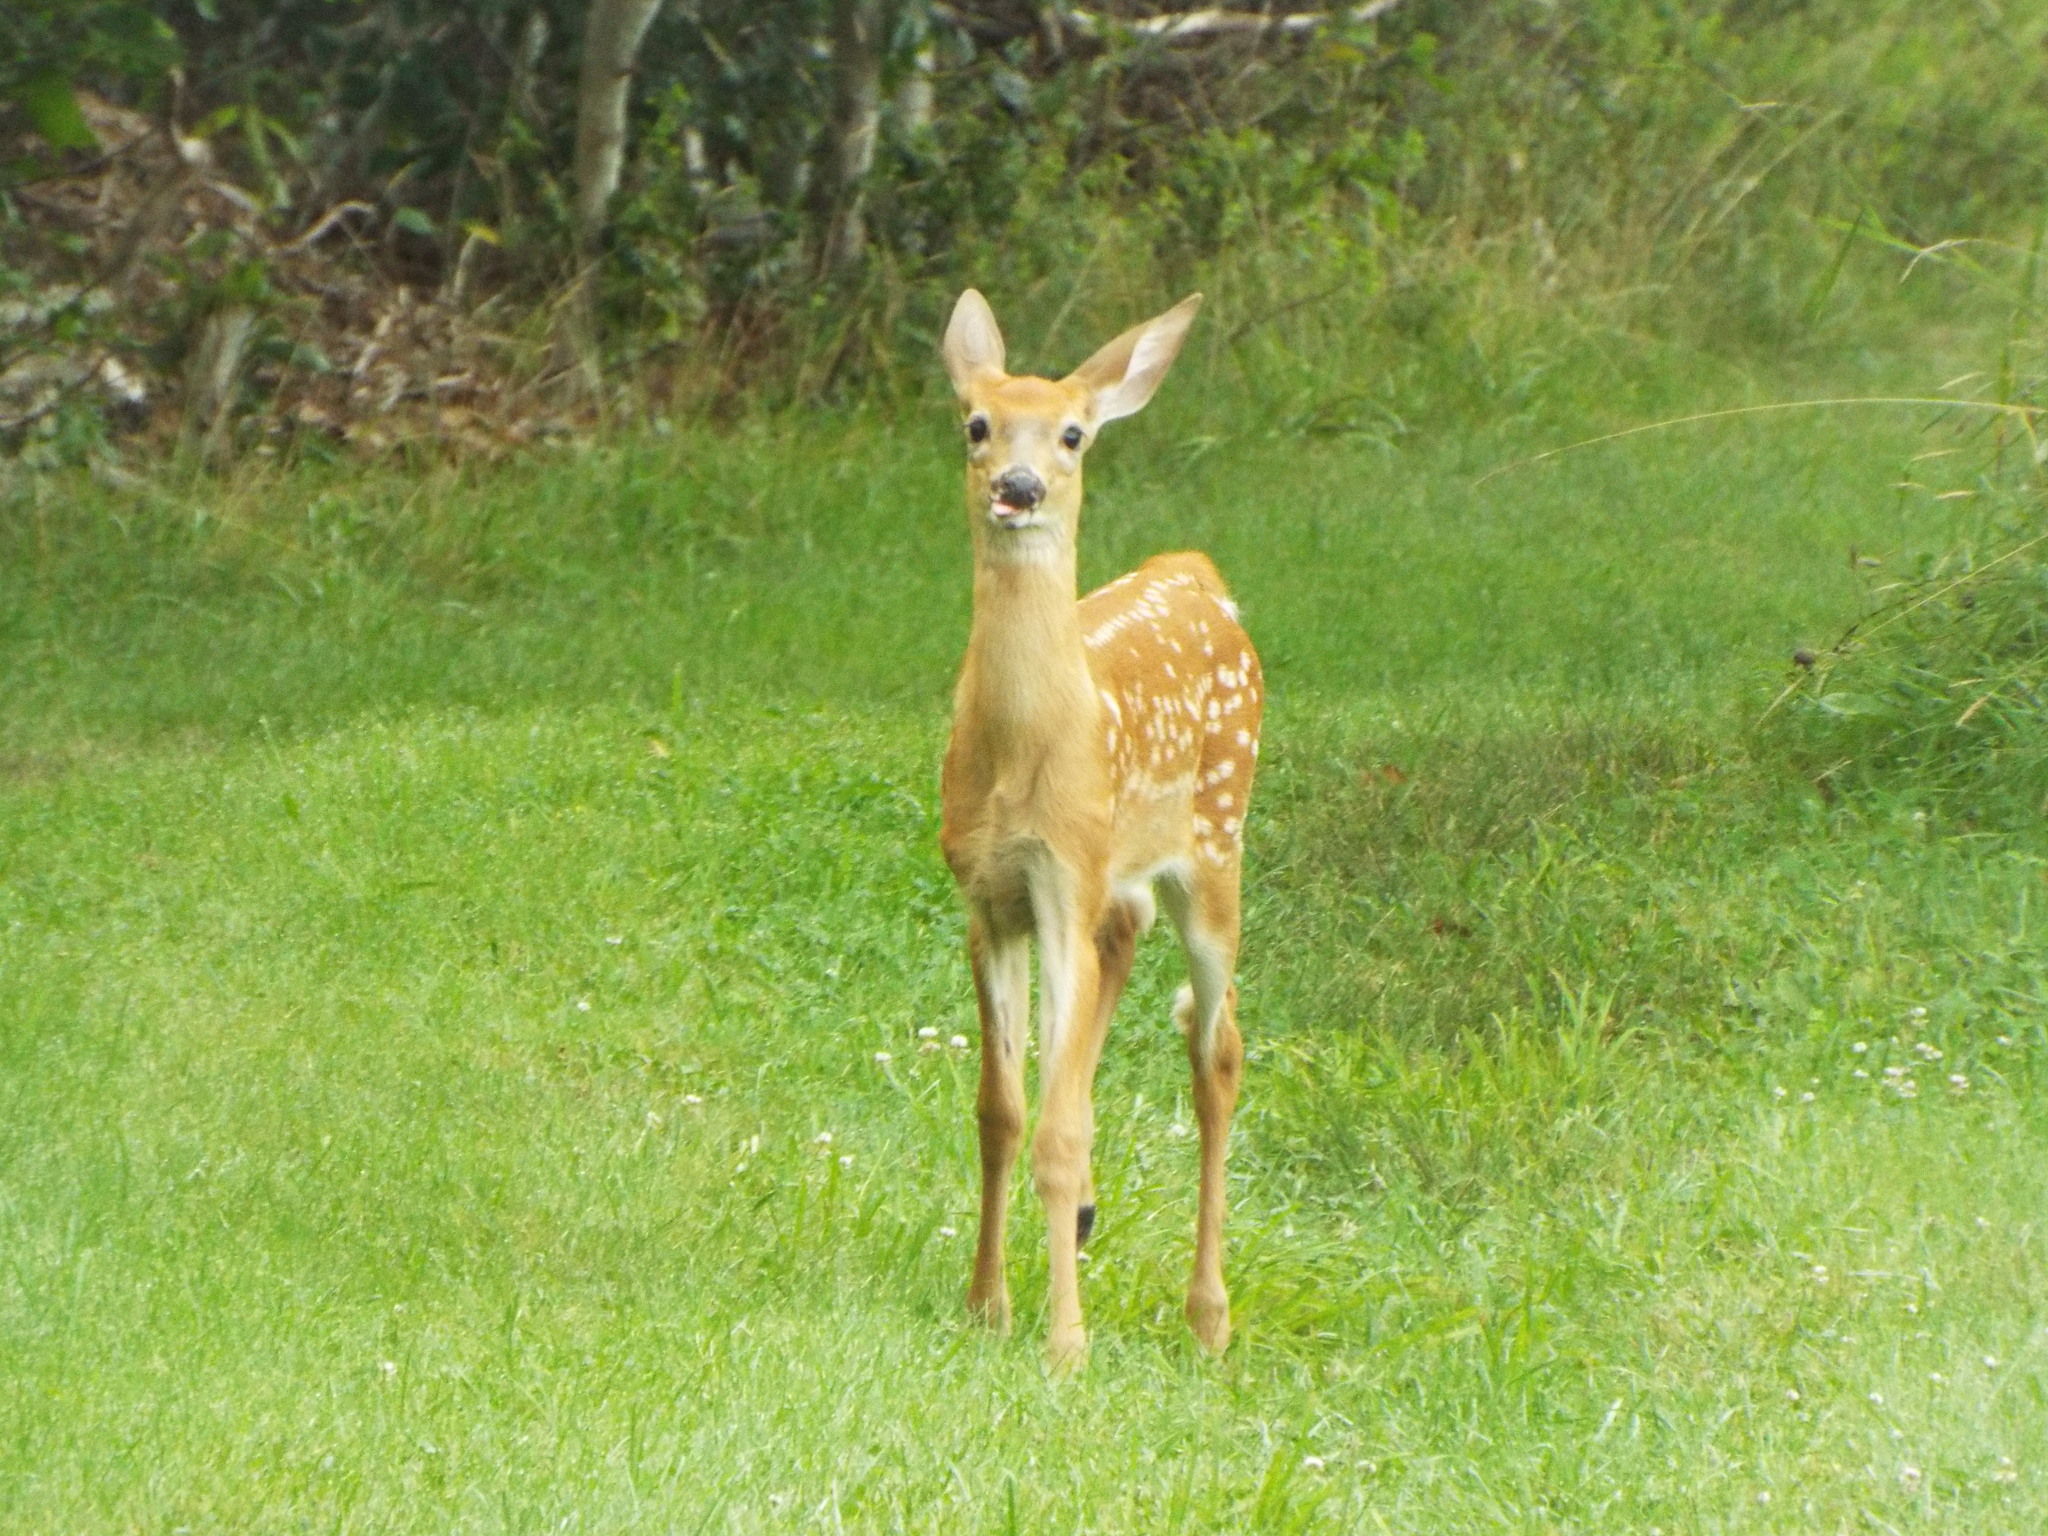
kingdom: Animalia
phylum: Chordata
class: Mammalia
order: Artiodactyla
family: Cervidae
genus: Odocoileus
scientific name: Odocoileus virginianus
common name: White-tailed deer
